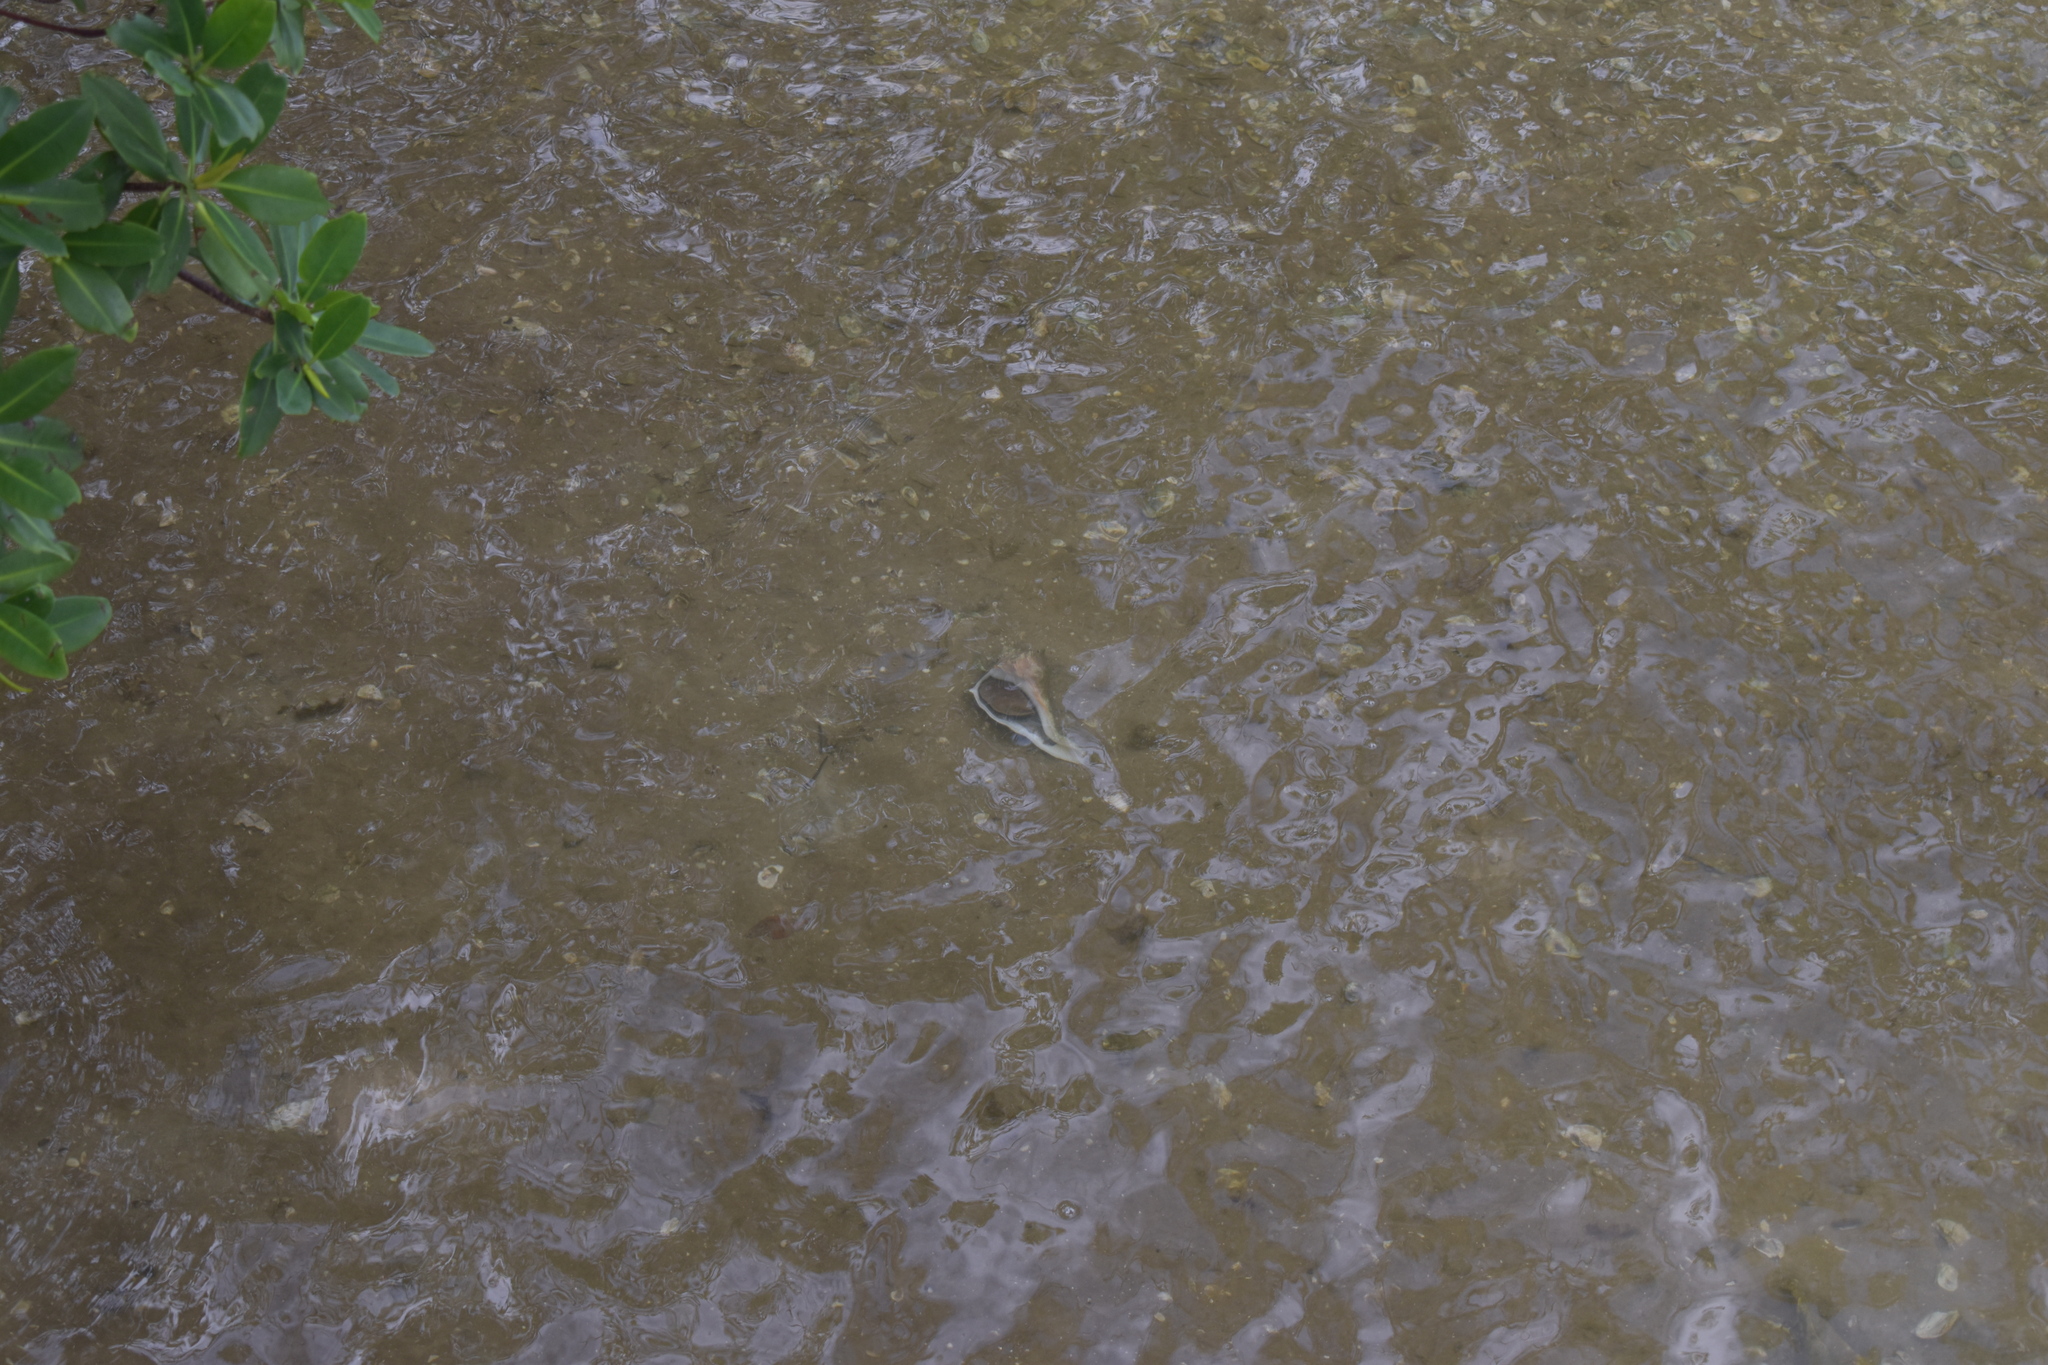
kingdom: Animalia
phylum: Mollusca
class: Gastropoda
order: Neogastropoda
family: Busyconidae
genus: Sinistrofulgur
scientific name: Sinistrofulgur sinistrum
